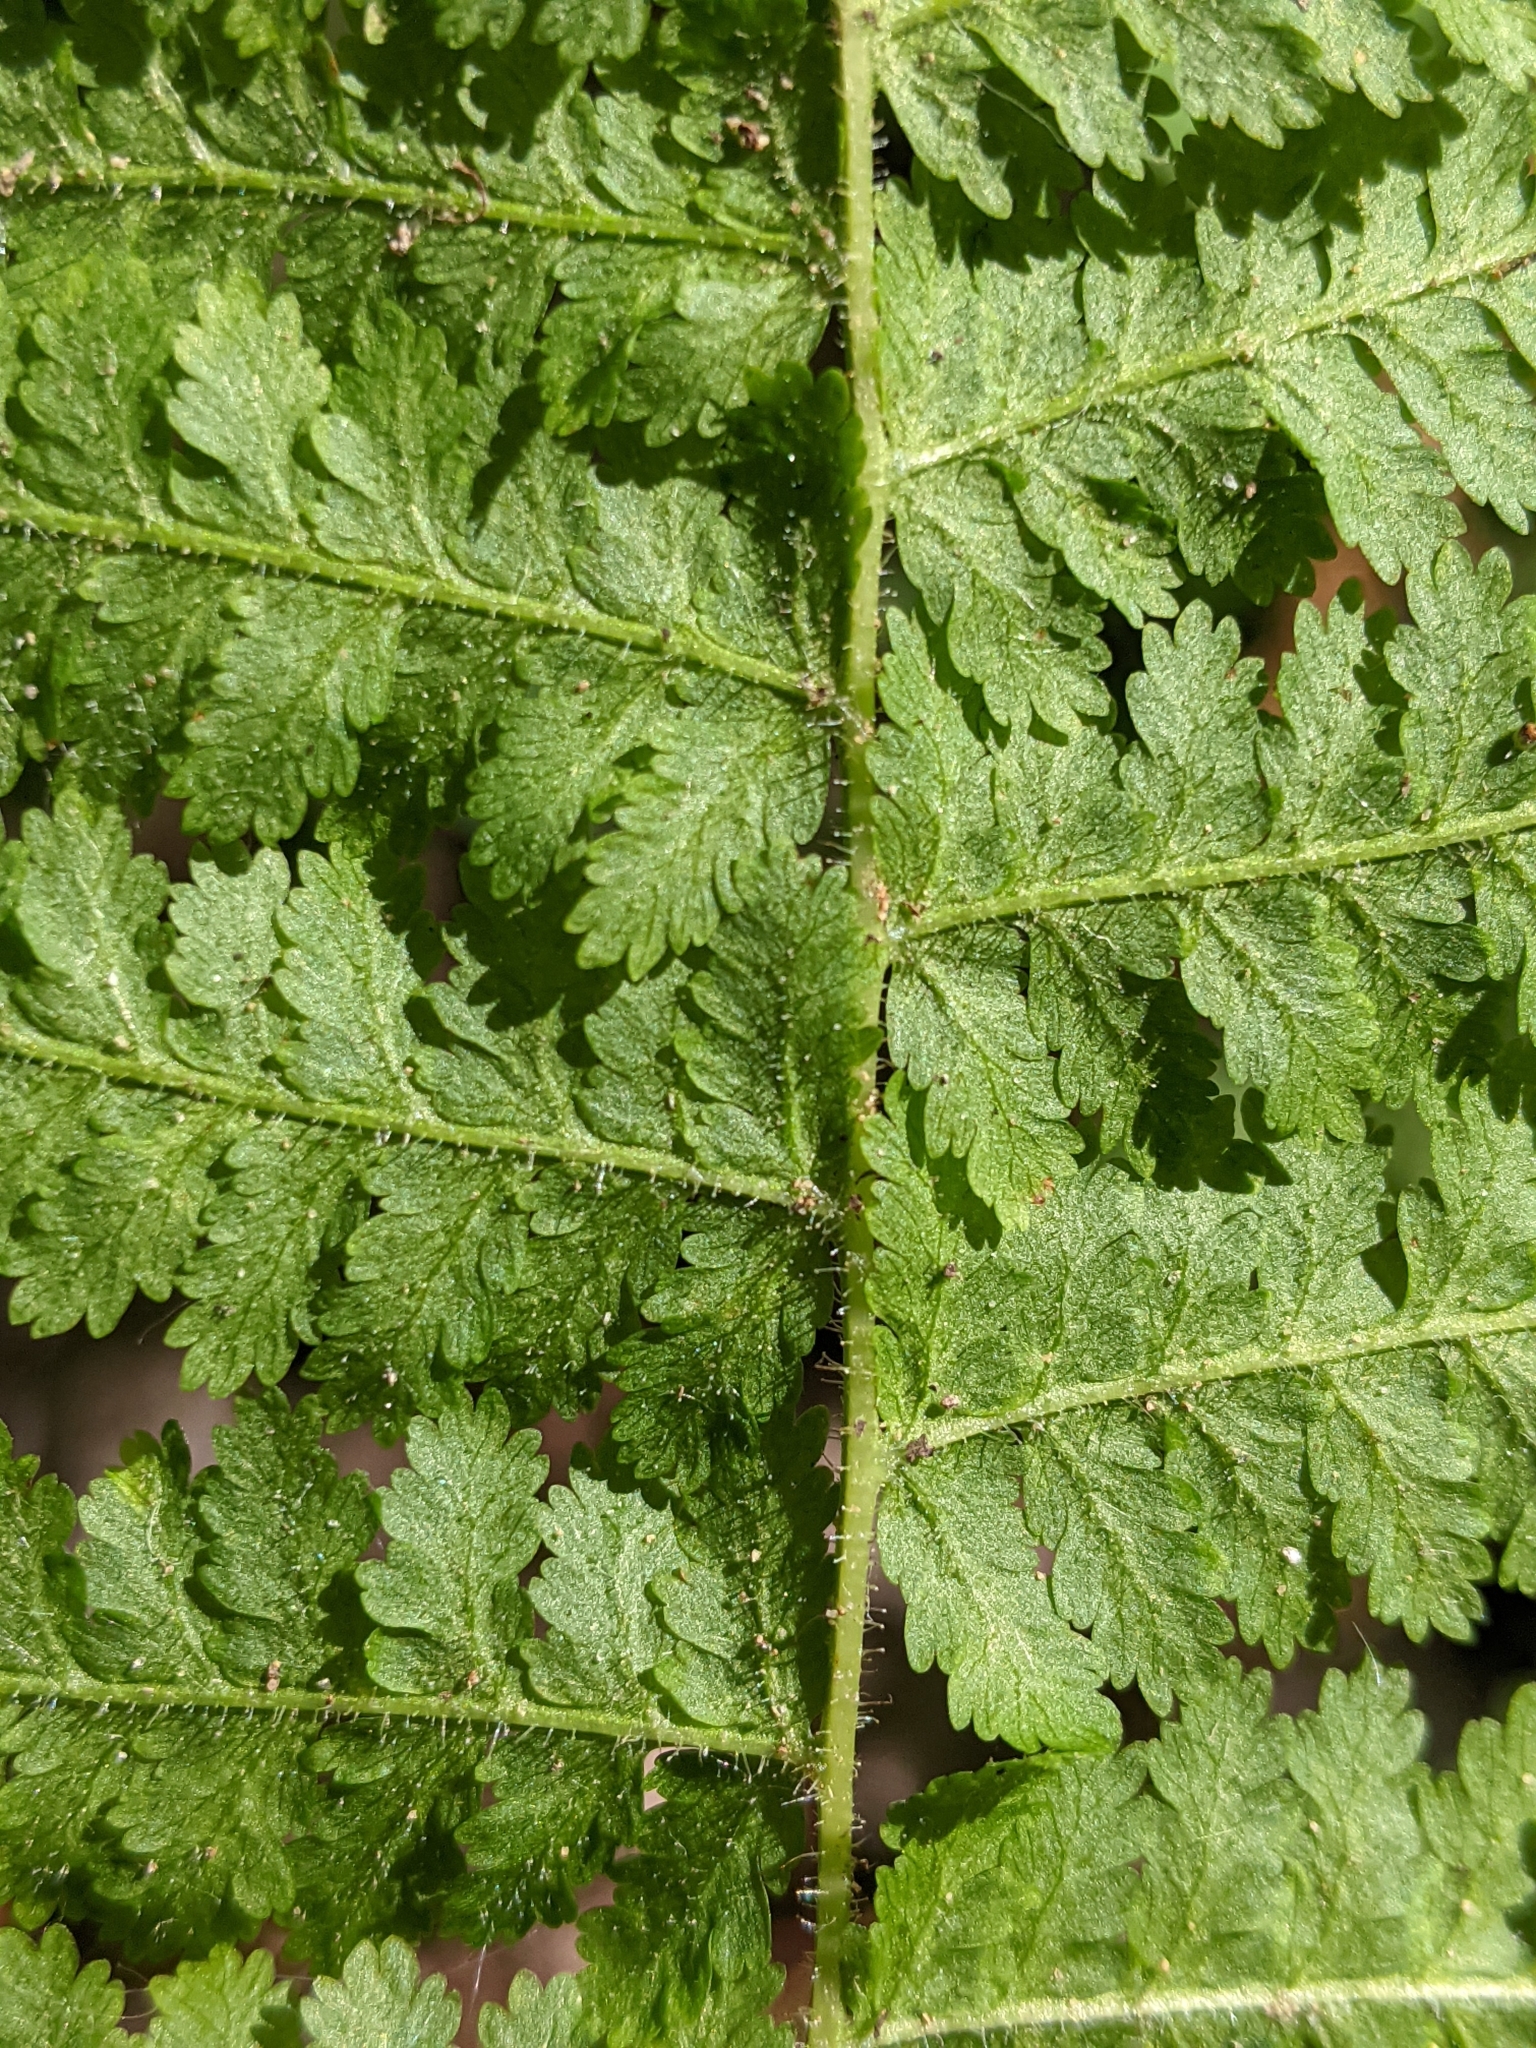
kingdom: Plantae
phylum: Tracheophyta
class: Polypodiopsida
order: Polypodiales
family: Dennstaedtiaceae
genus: Sitobolium
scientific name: Sitobolium punctilobum
